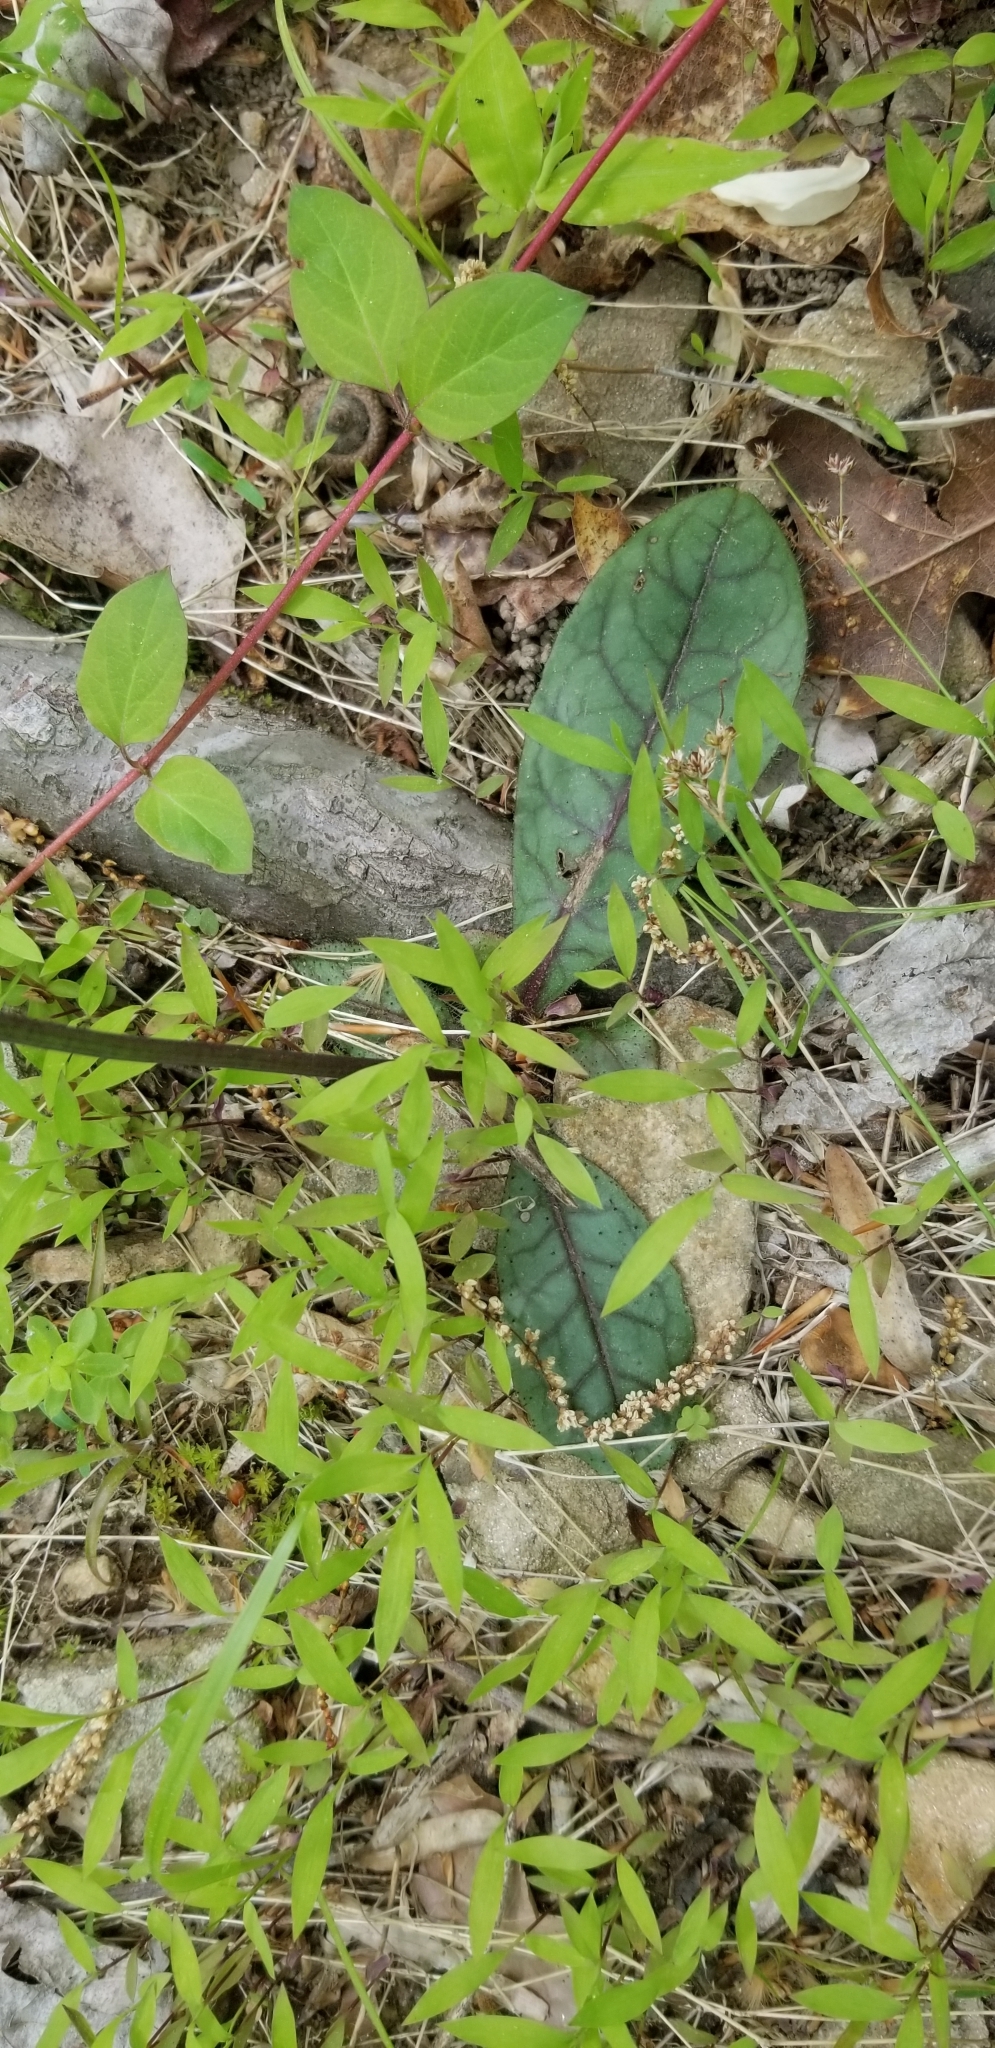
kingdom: Plantae
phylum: Tracheophyta
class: Magnoliopsida
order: Asterales
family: Asteraceae
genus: Hieracium
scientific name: Hieracium venosum
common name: Rattlesnake hawkweed
